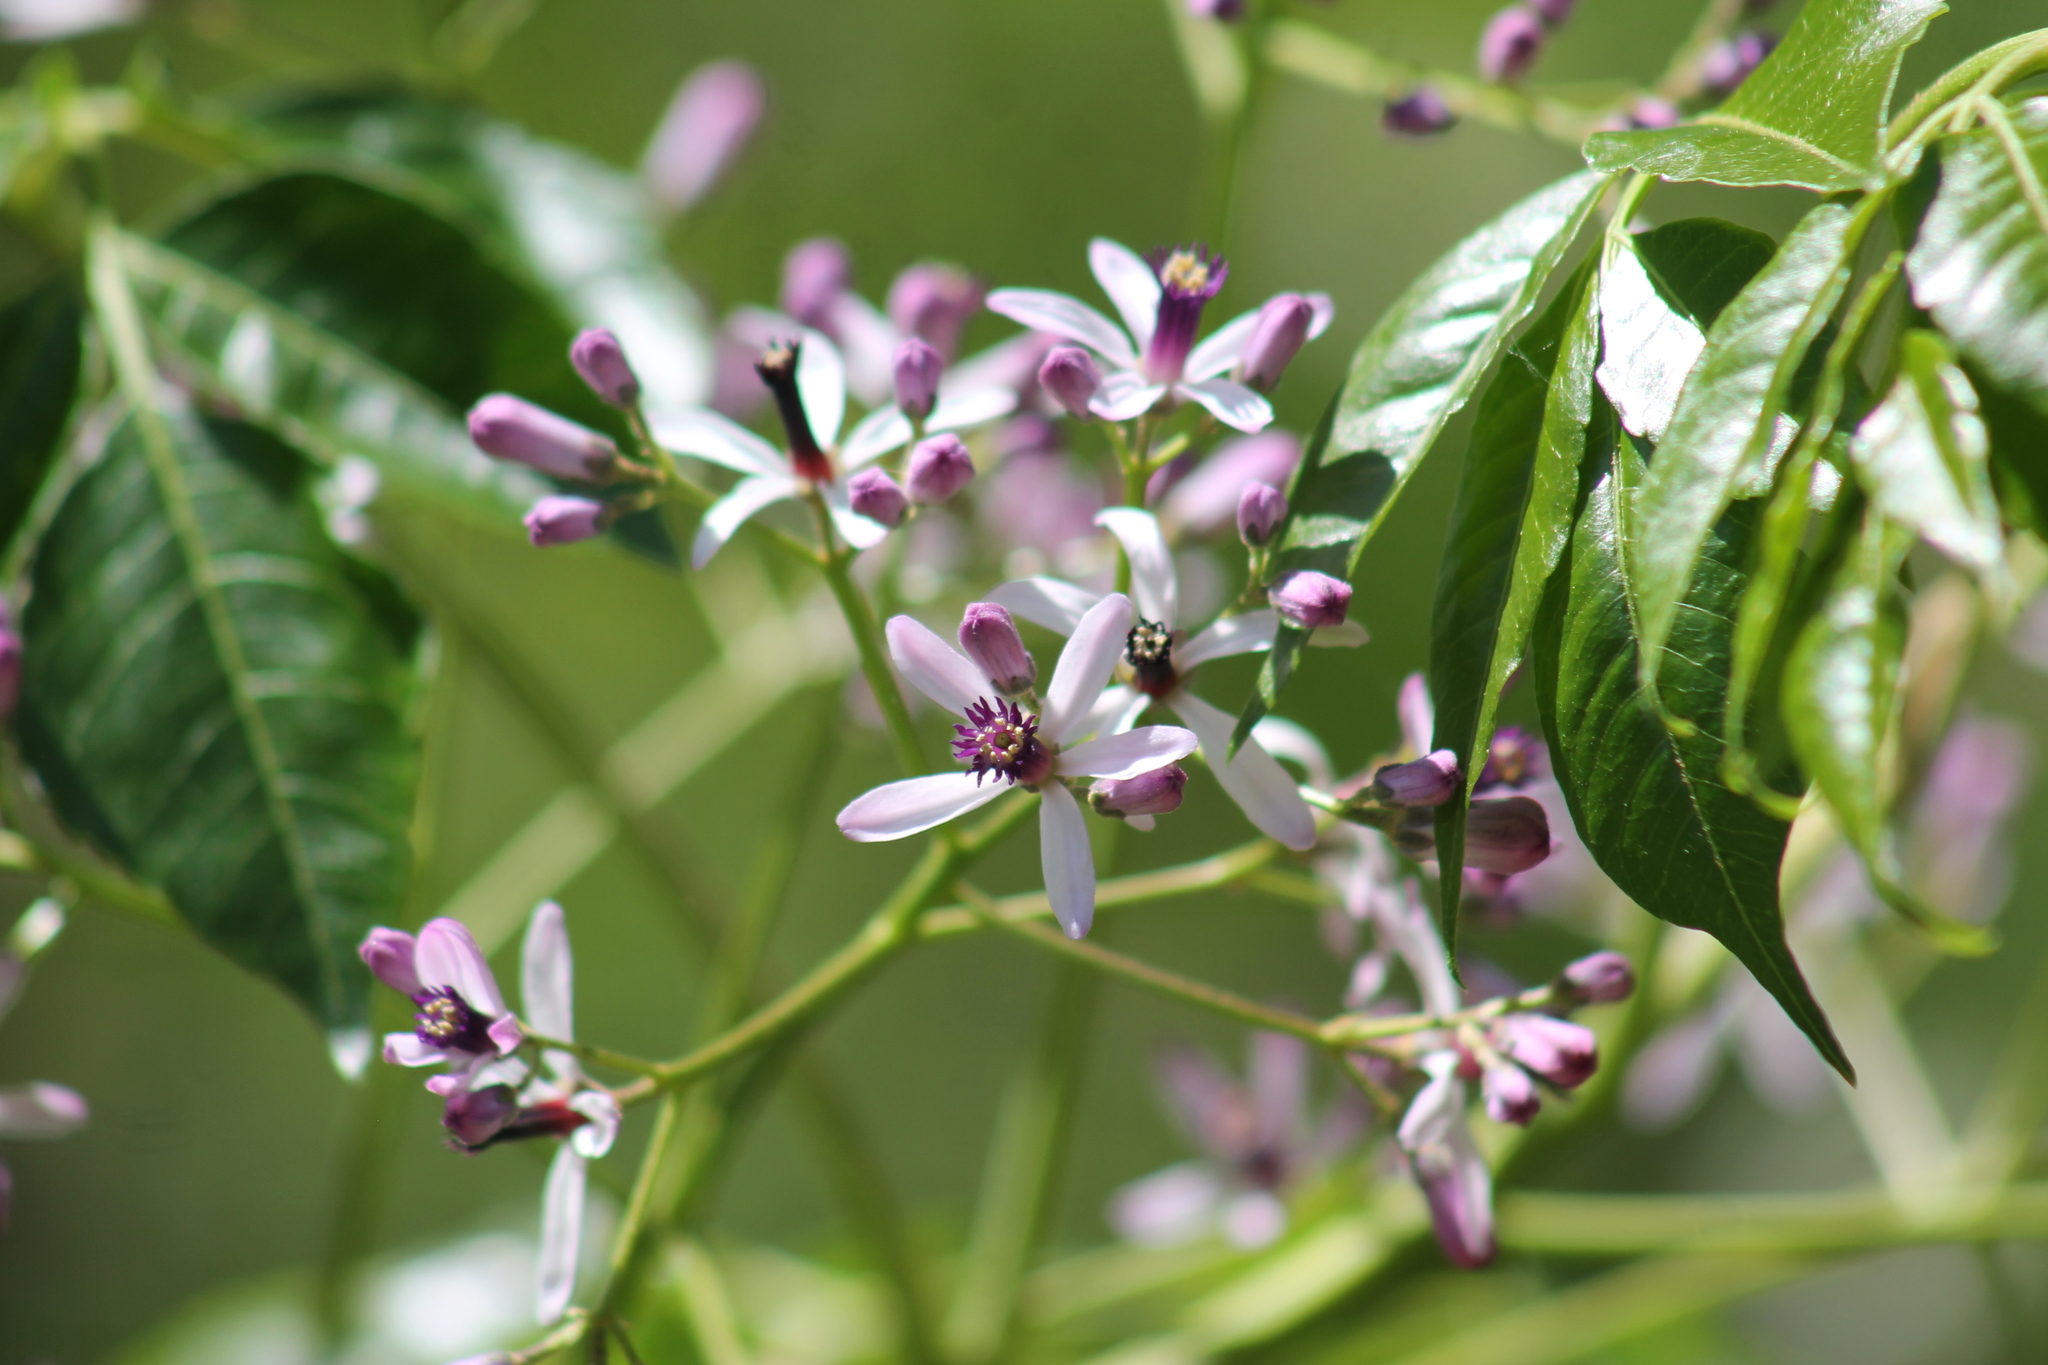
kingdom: Plantae
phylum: Tracheophyta
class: Magnoliopsida
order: Sapindales
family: Meliaceae
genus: Melia
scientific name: Melia azedarach
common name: Chinaberrytree
